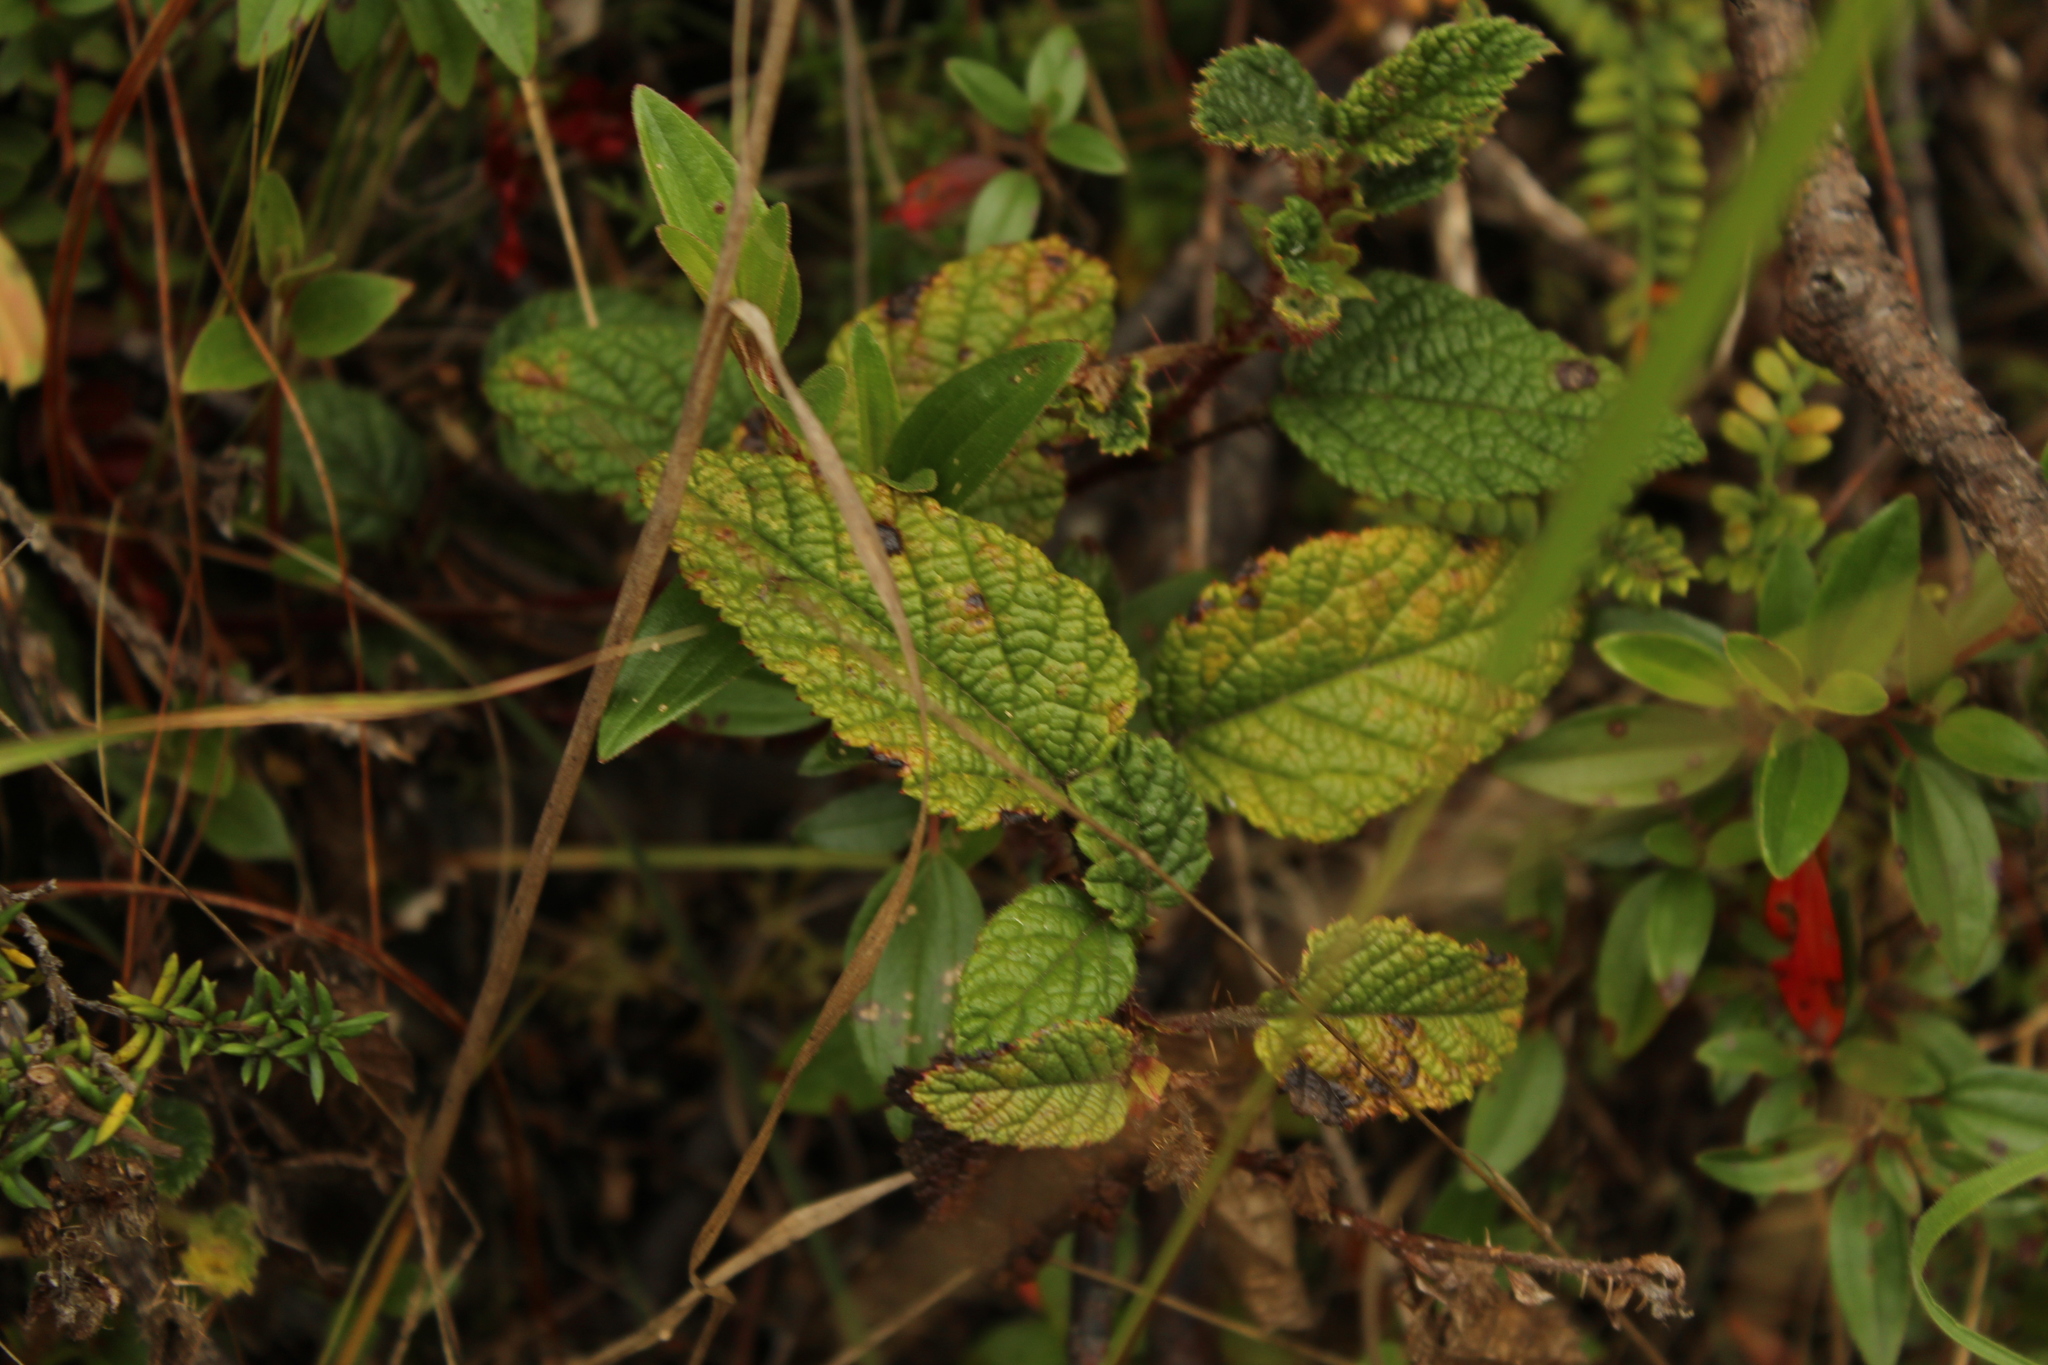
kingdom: Plantae
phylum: Tracheophyta
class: Magnoliopsida
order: Rosales
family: Rosaceae
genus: Rubus
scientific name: Rubus acanthophyllos
